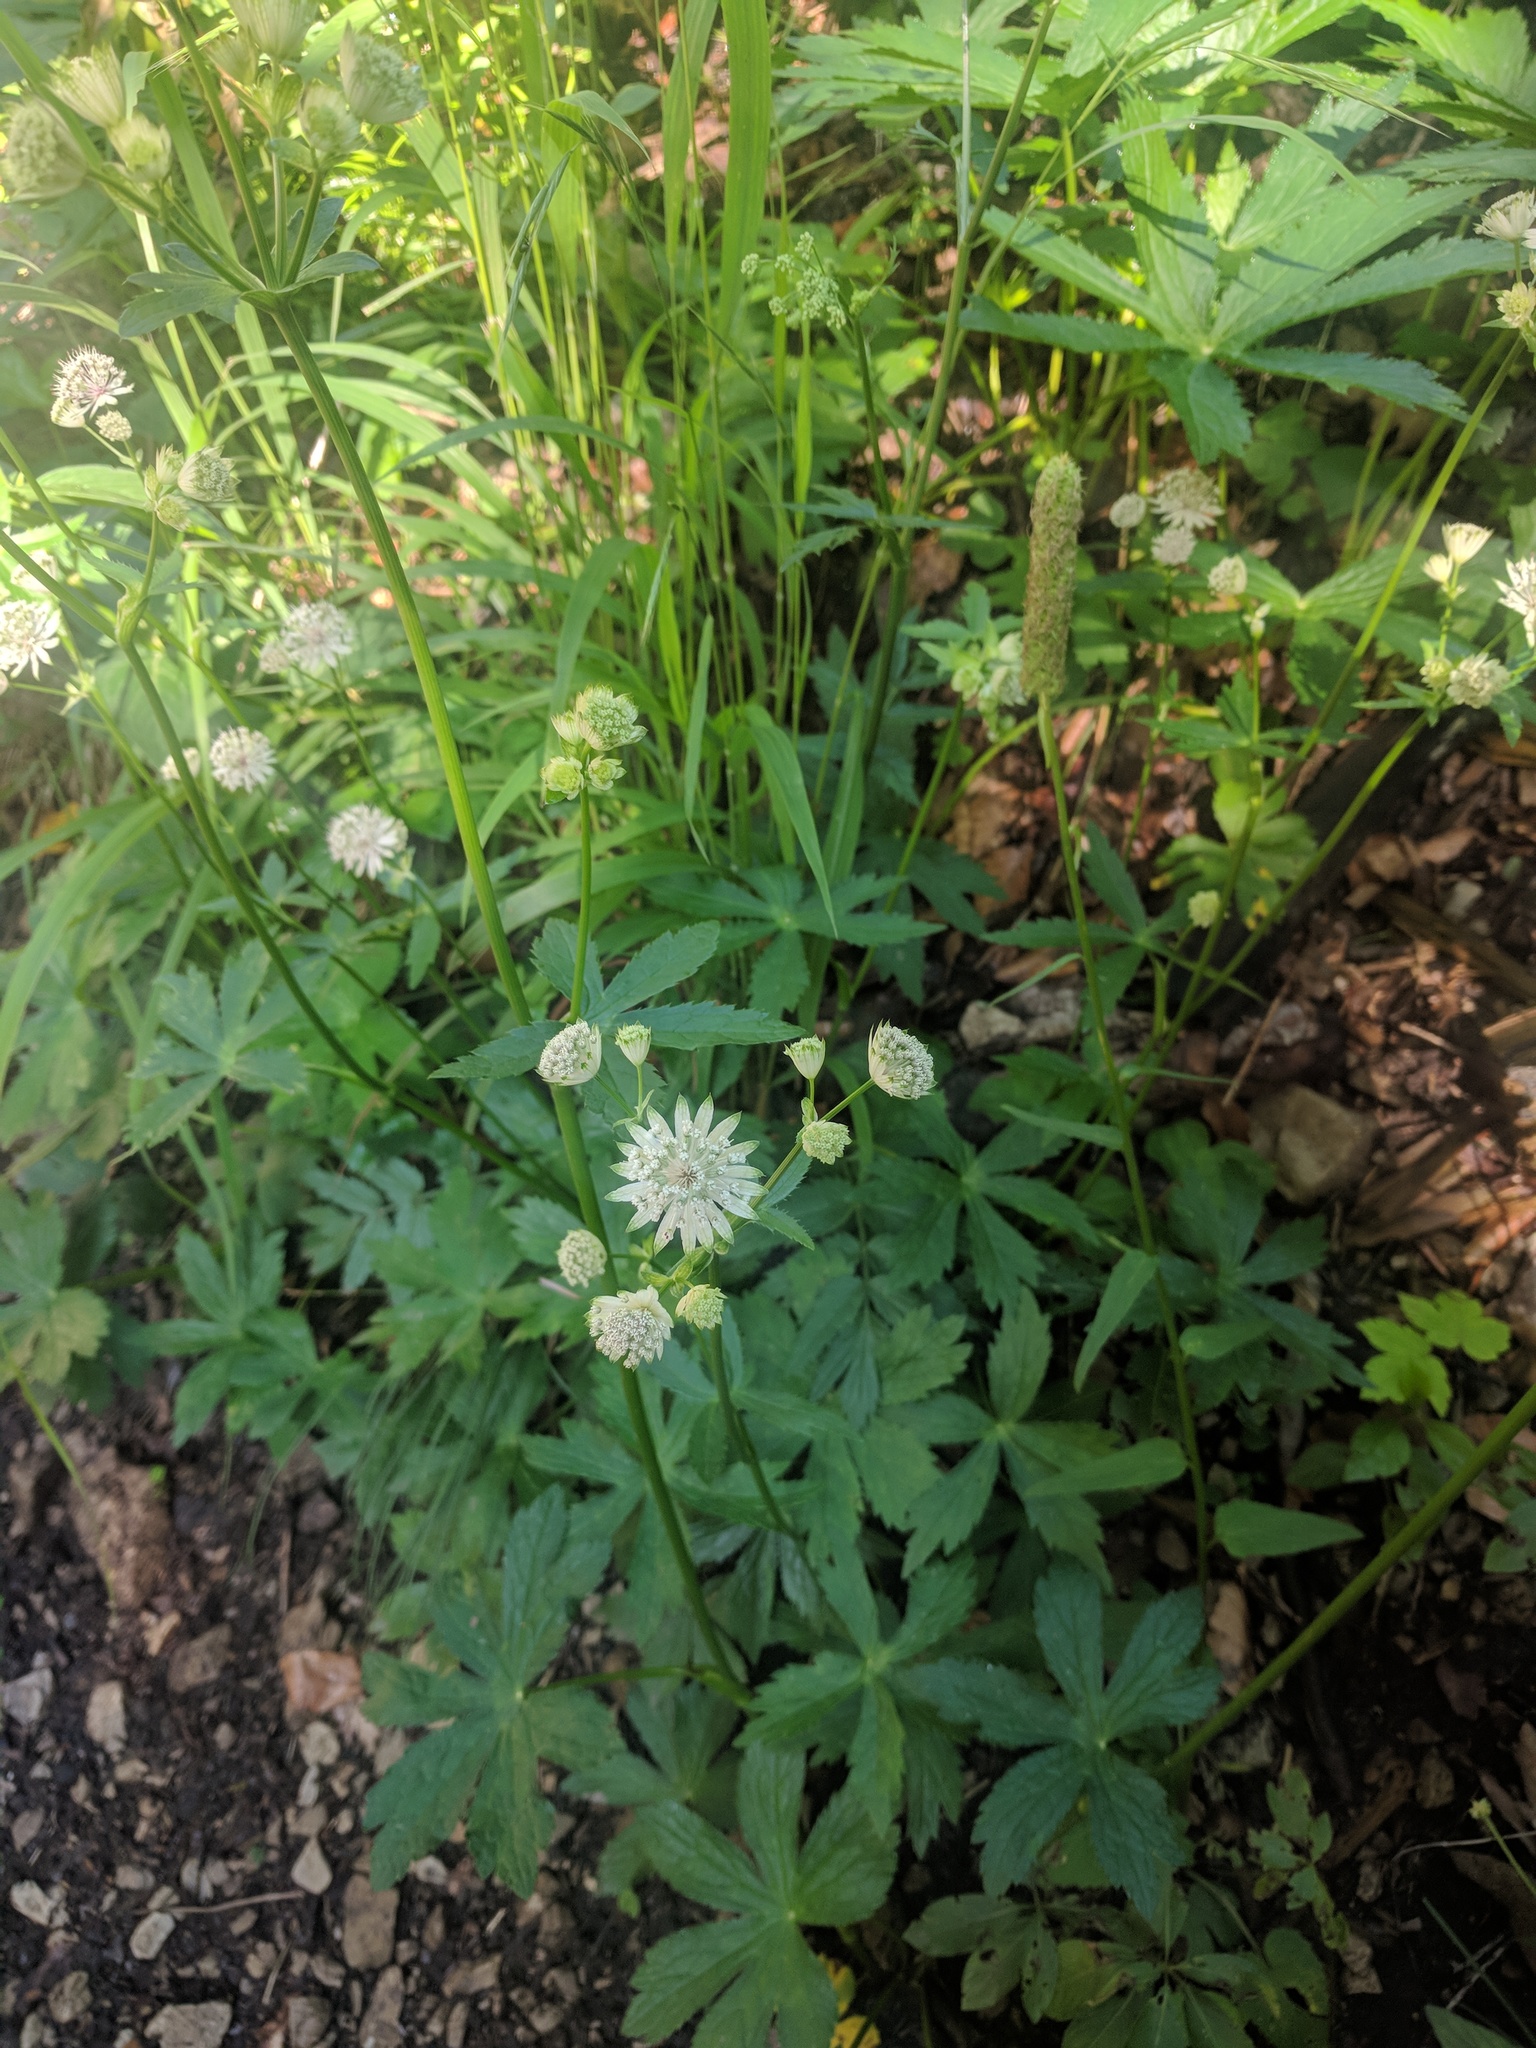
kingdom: Plantae
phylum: Tracheophyta
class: Magnoliopsida
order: Apiales
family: Apiaceae
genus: Astrantia
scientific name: Astrantia major
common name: Greater masterwort
